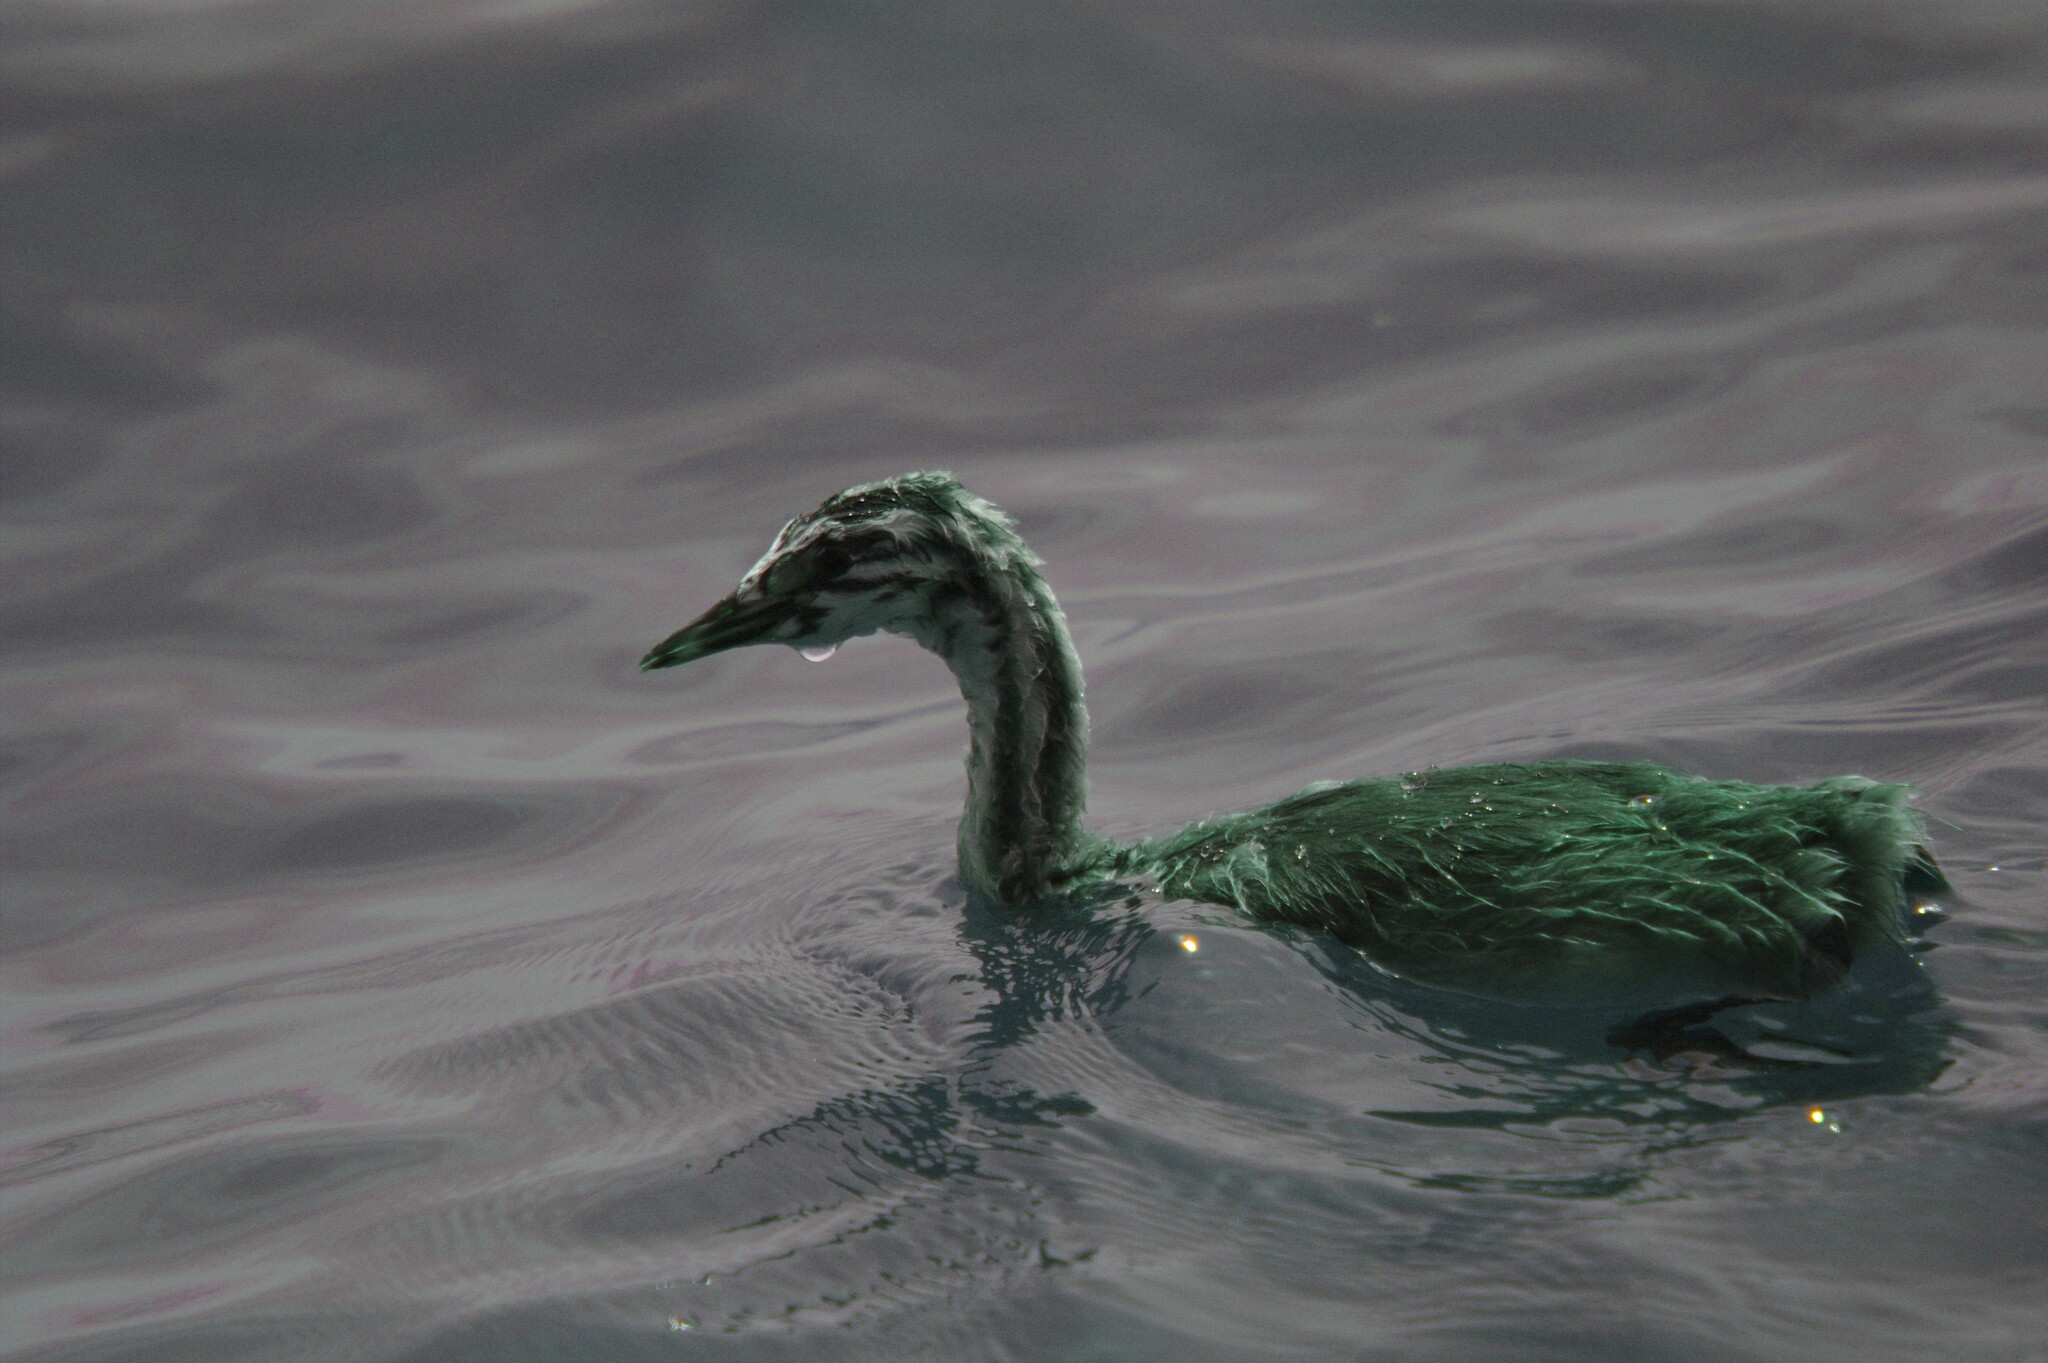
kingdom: Animalia
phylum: Chordata
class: Aves
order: Podicipediformes
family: Podicipedidae
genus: Podiceps
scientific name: Podiceps cristatus
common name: Great crested grebe
